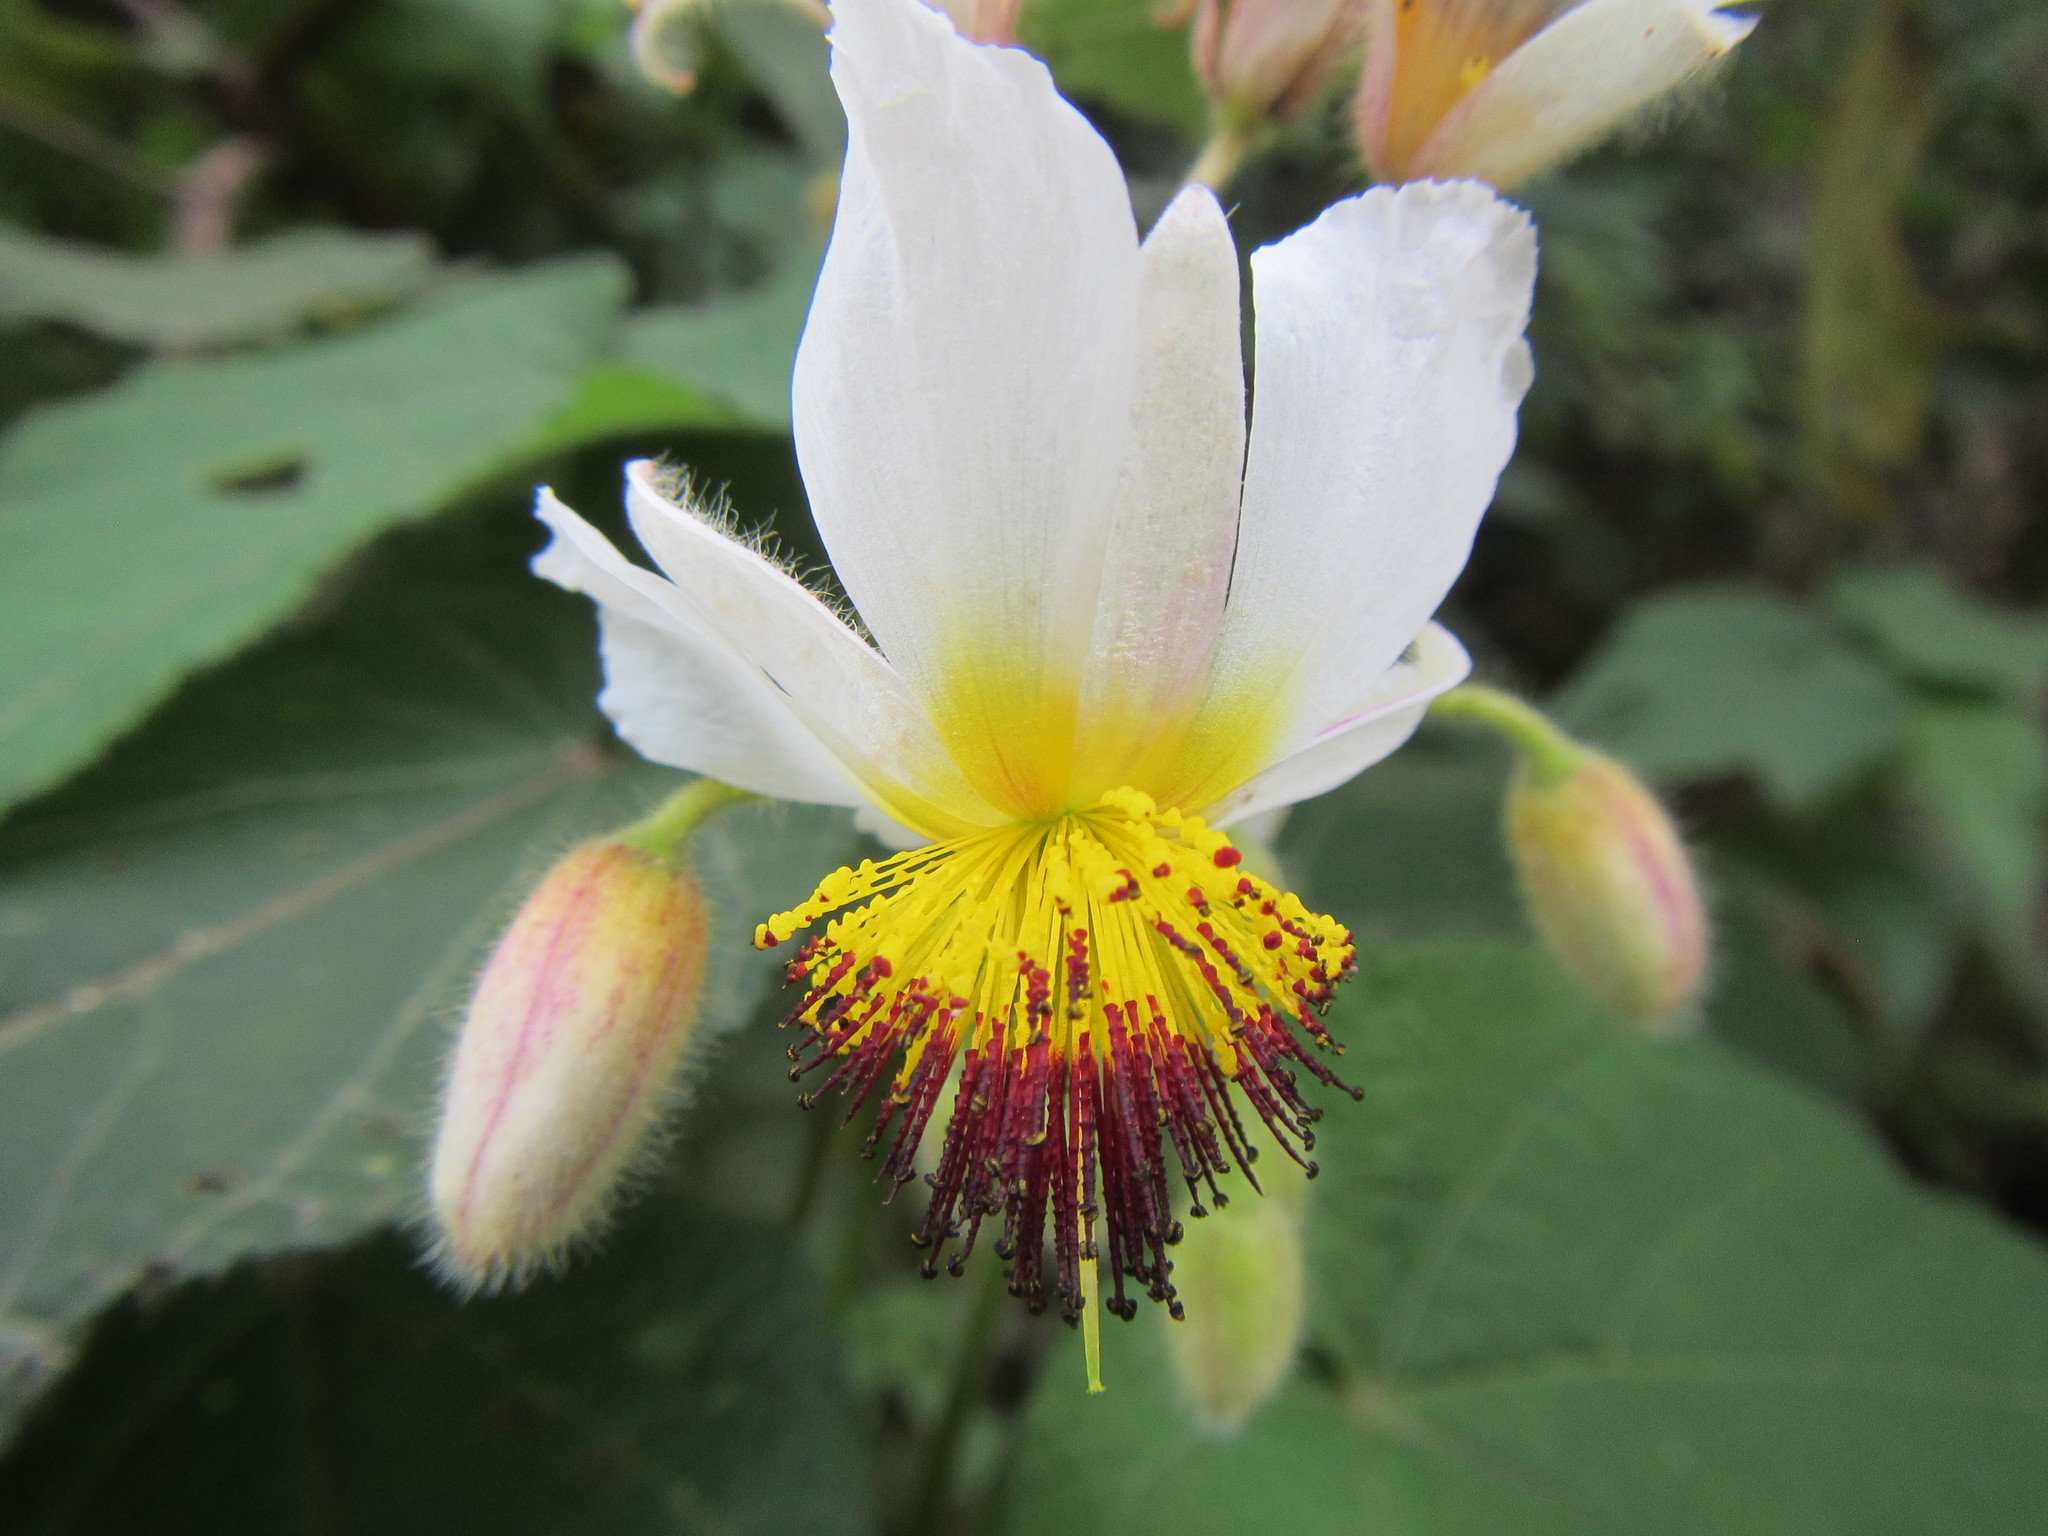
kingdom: Plantae
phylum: Tracheophyta
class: Magnoliopsida
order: Malvales
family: Malvaceae
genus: Sparrmannia
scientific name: Sparrmannia africana
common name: African-hemp
